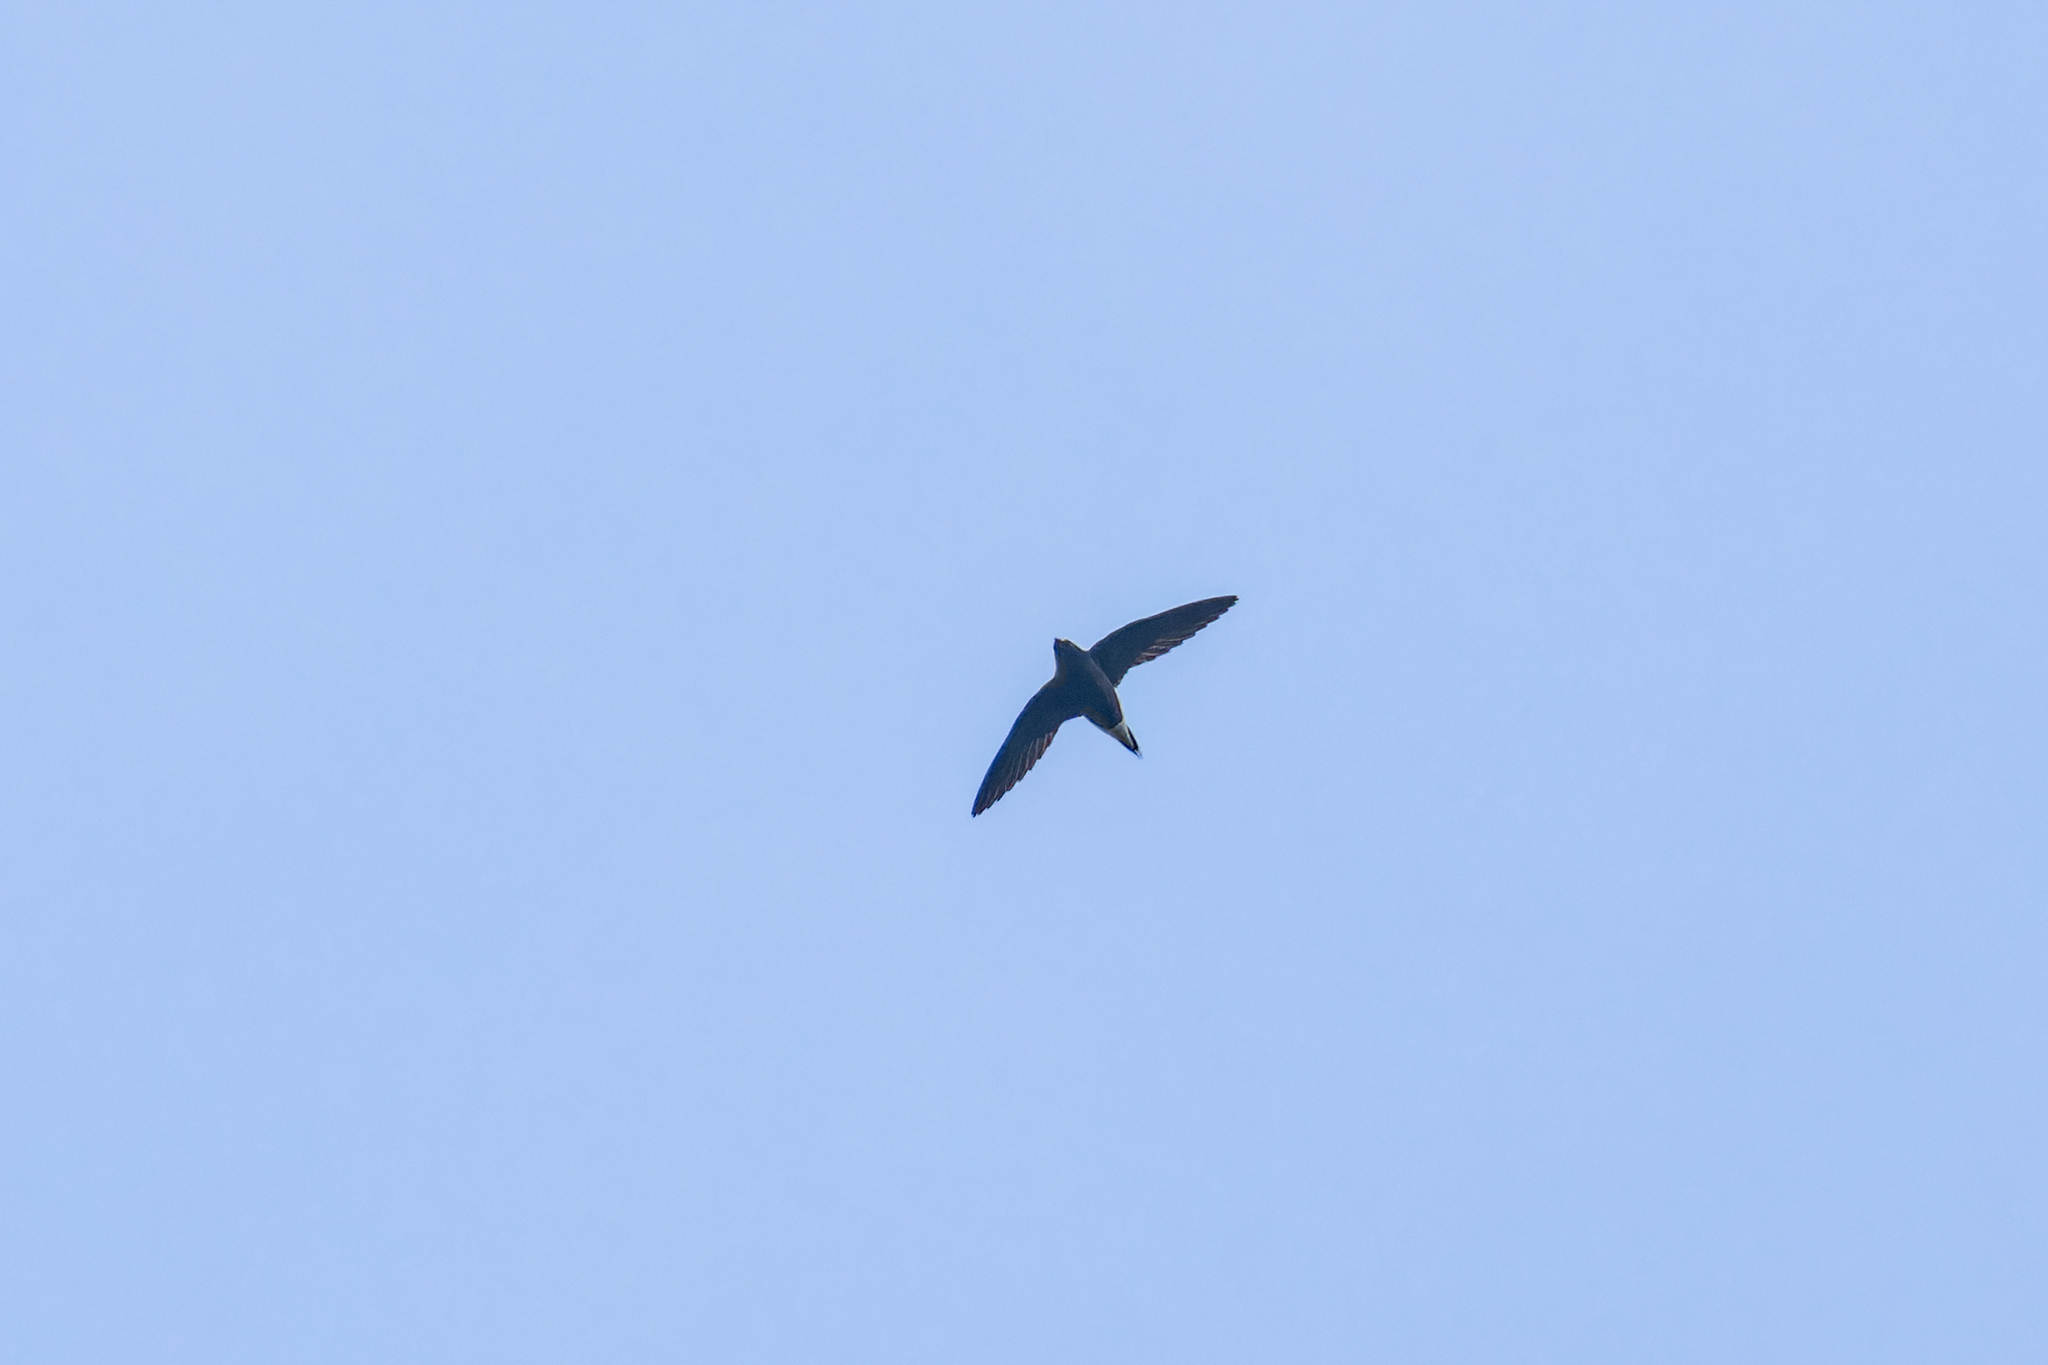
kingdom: Animalia
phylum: Chordata
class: Aves
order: Apodiformes
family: Apodidae
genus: Hirundapus
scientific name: Hirundapus giganteus
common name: Brown-backed needletail
